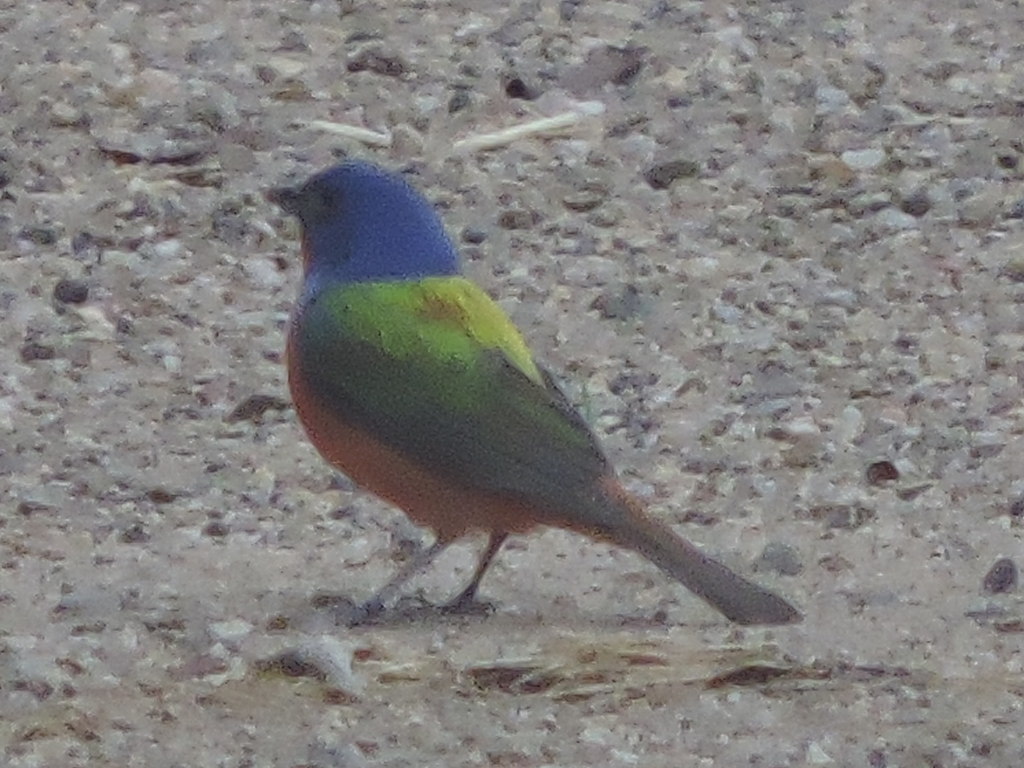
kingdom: Animalia
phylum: Chordata
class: Aves
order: Passeriformes
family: Cardinalidae
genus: Passerina
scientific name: Passerina ciris
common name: Painted bunting
